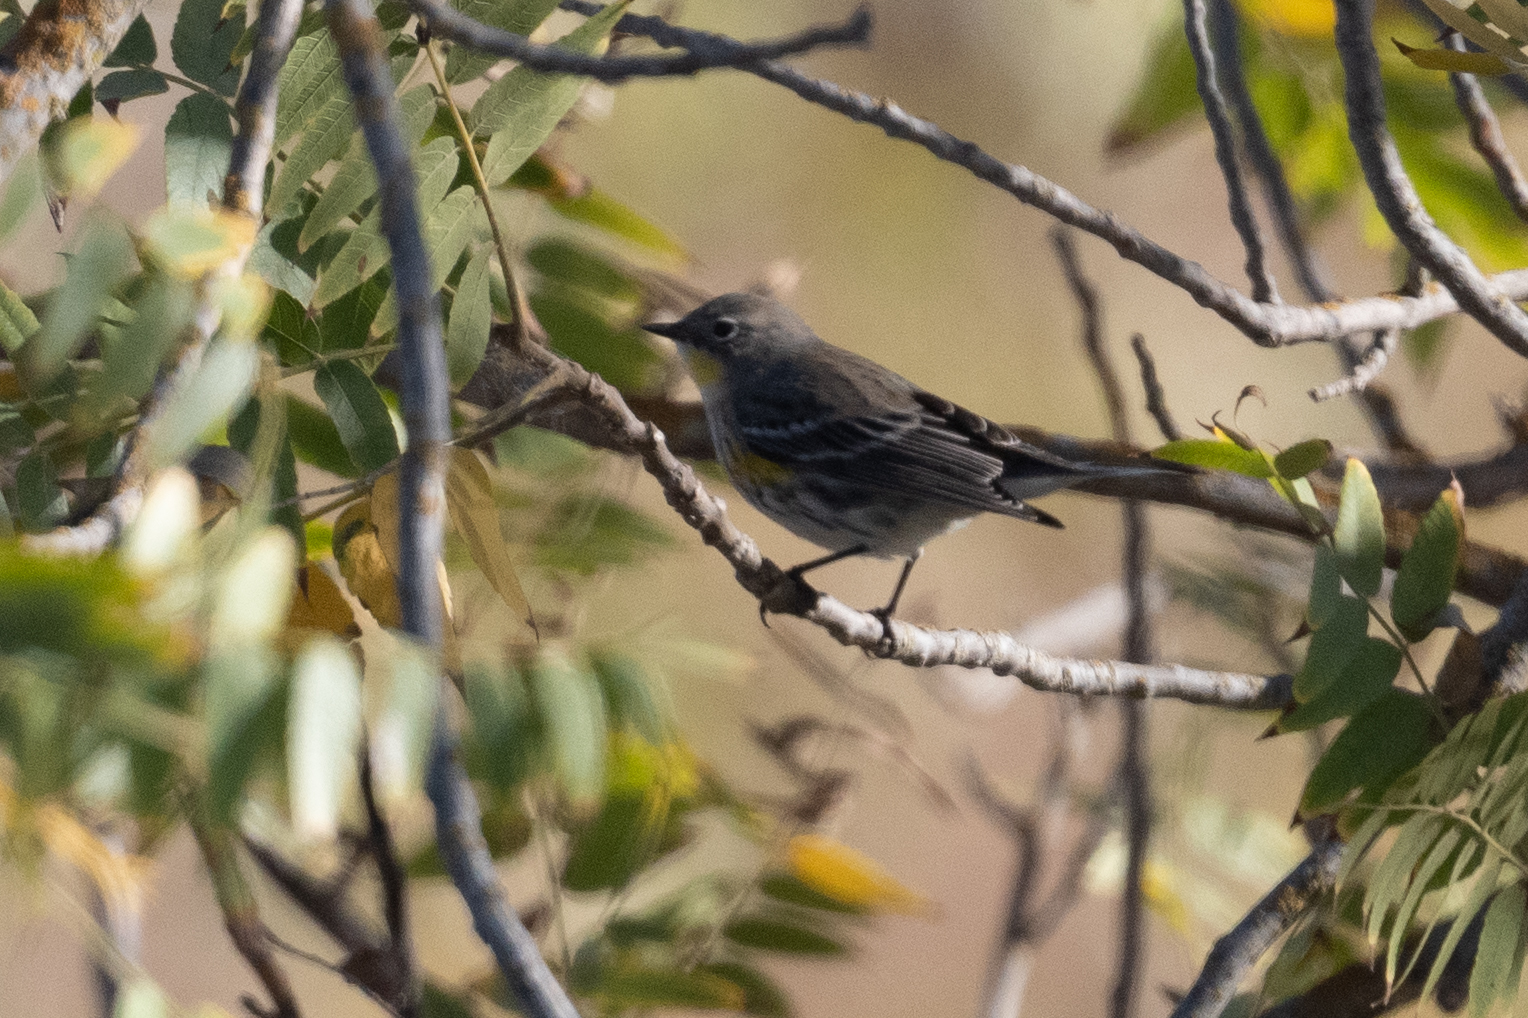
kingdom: Animalia
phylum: Chordata
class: Aves
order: Passeriformes
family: Parulidae
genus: Setophaga
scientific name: Setophaga coronata
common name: Myrtle warbler
